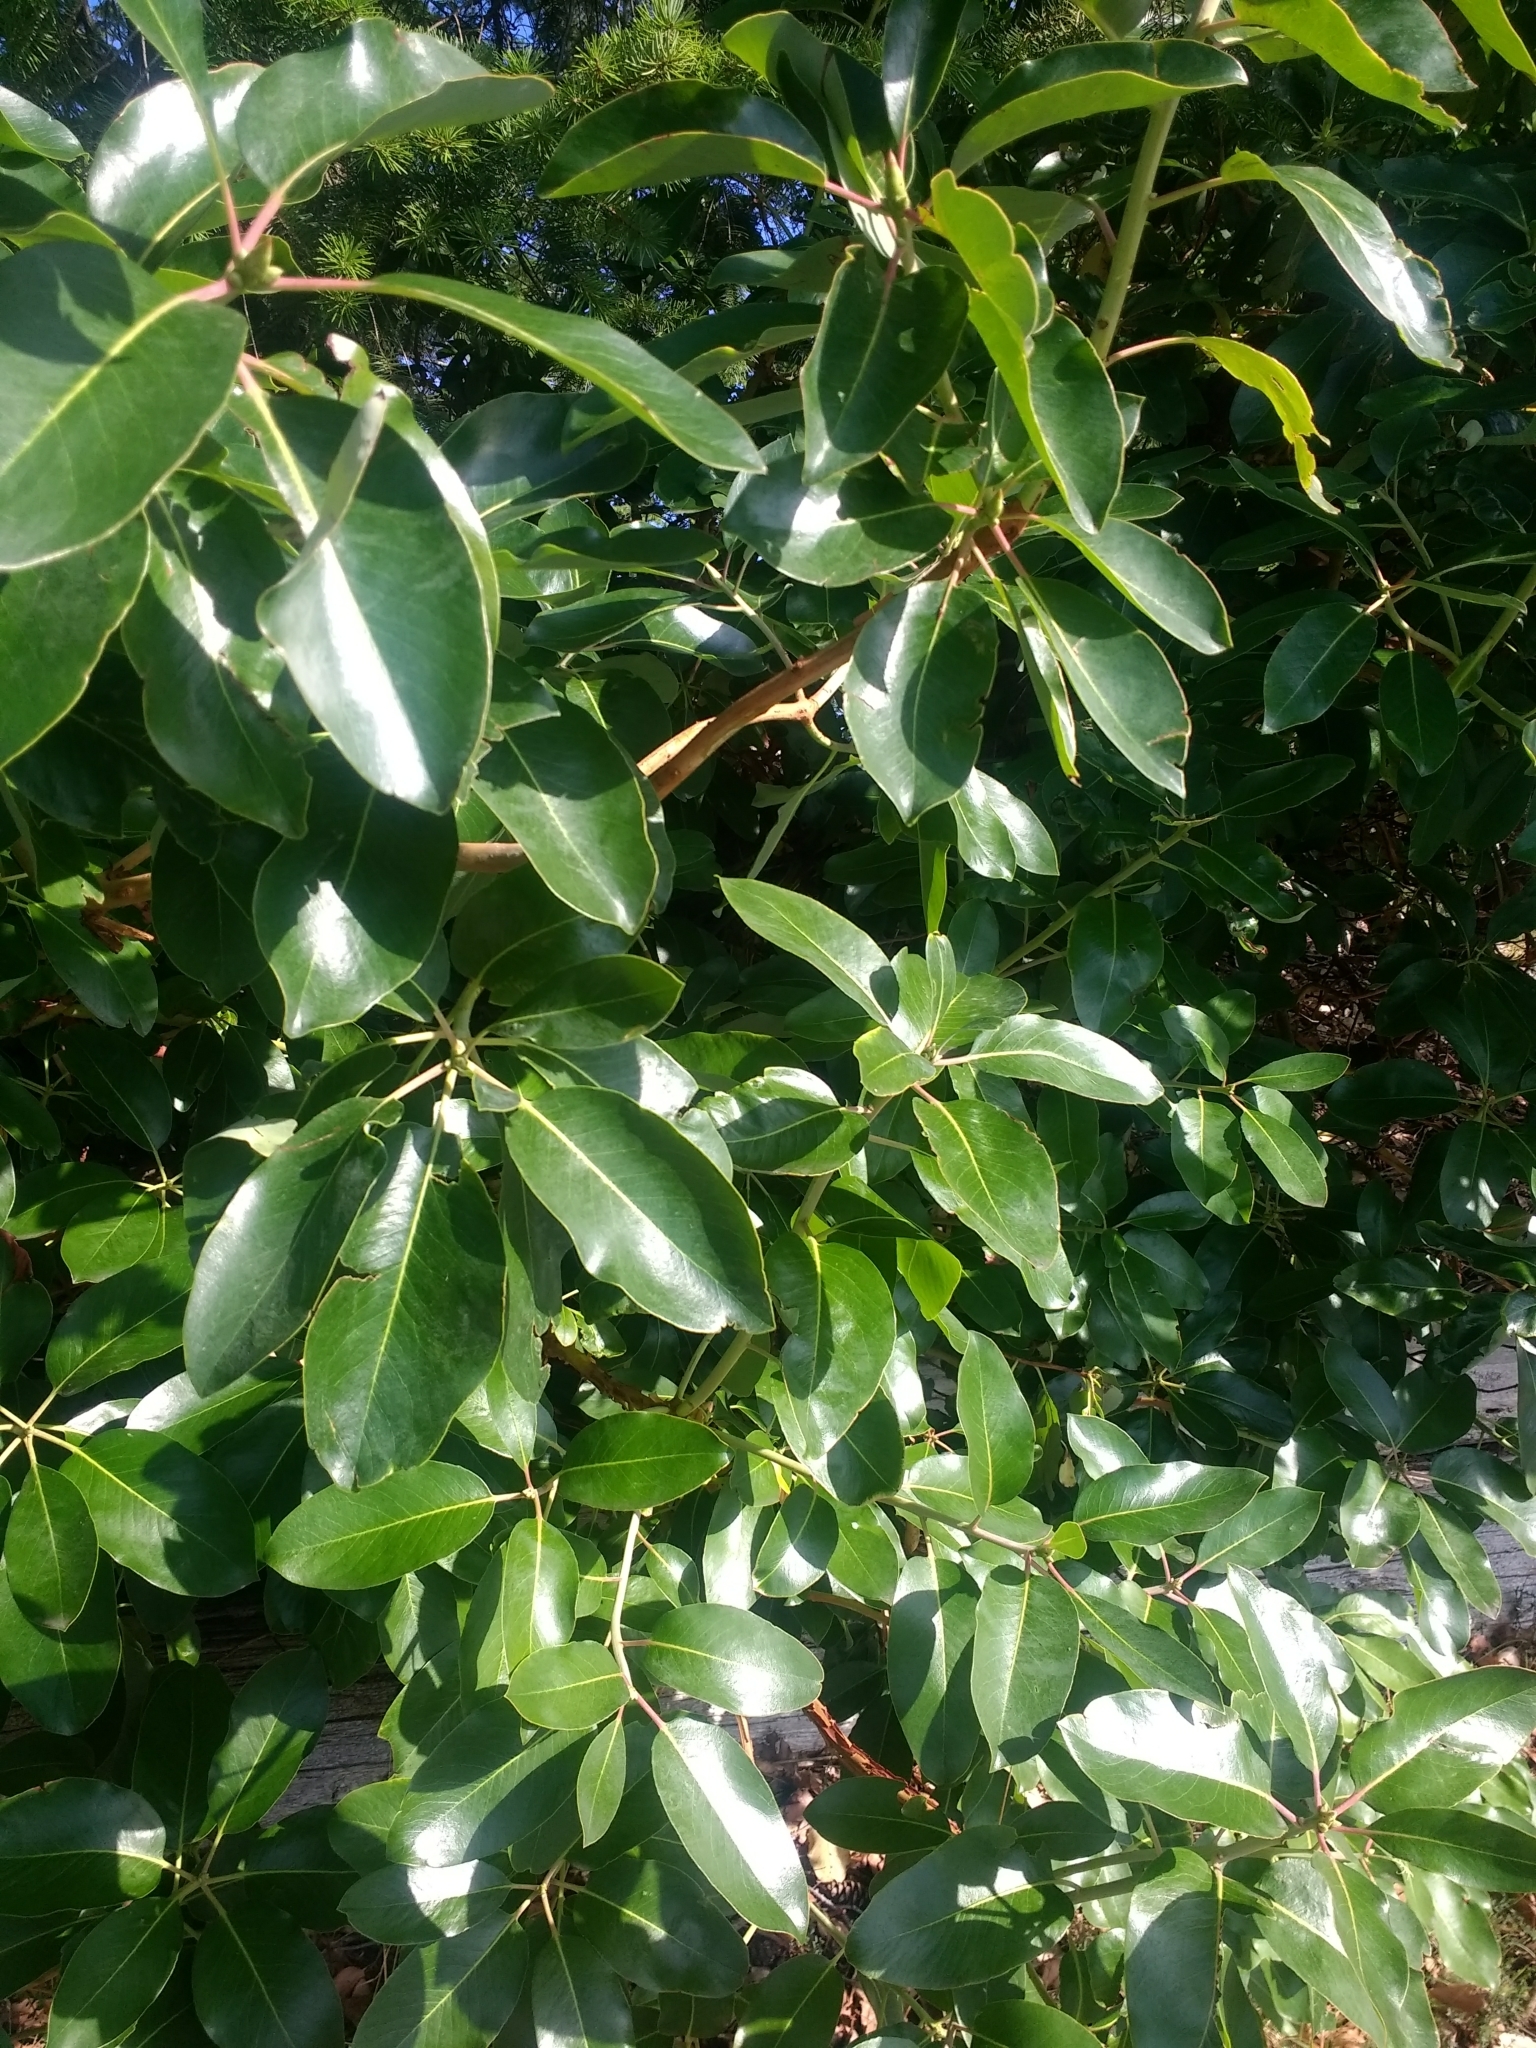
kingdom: Plantae
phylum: Tracheophyta
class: Magnoliopsida
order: Ericales
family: Ericaceae
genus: Arbutus
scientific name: Arbutus menziesii
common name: Pacific madrone
